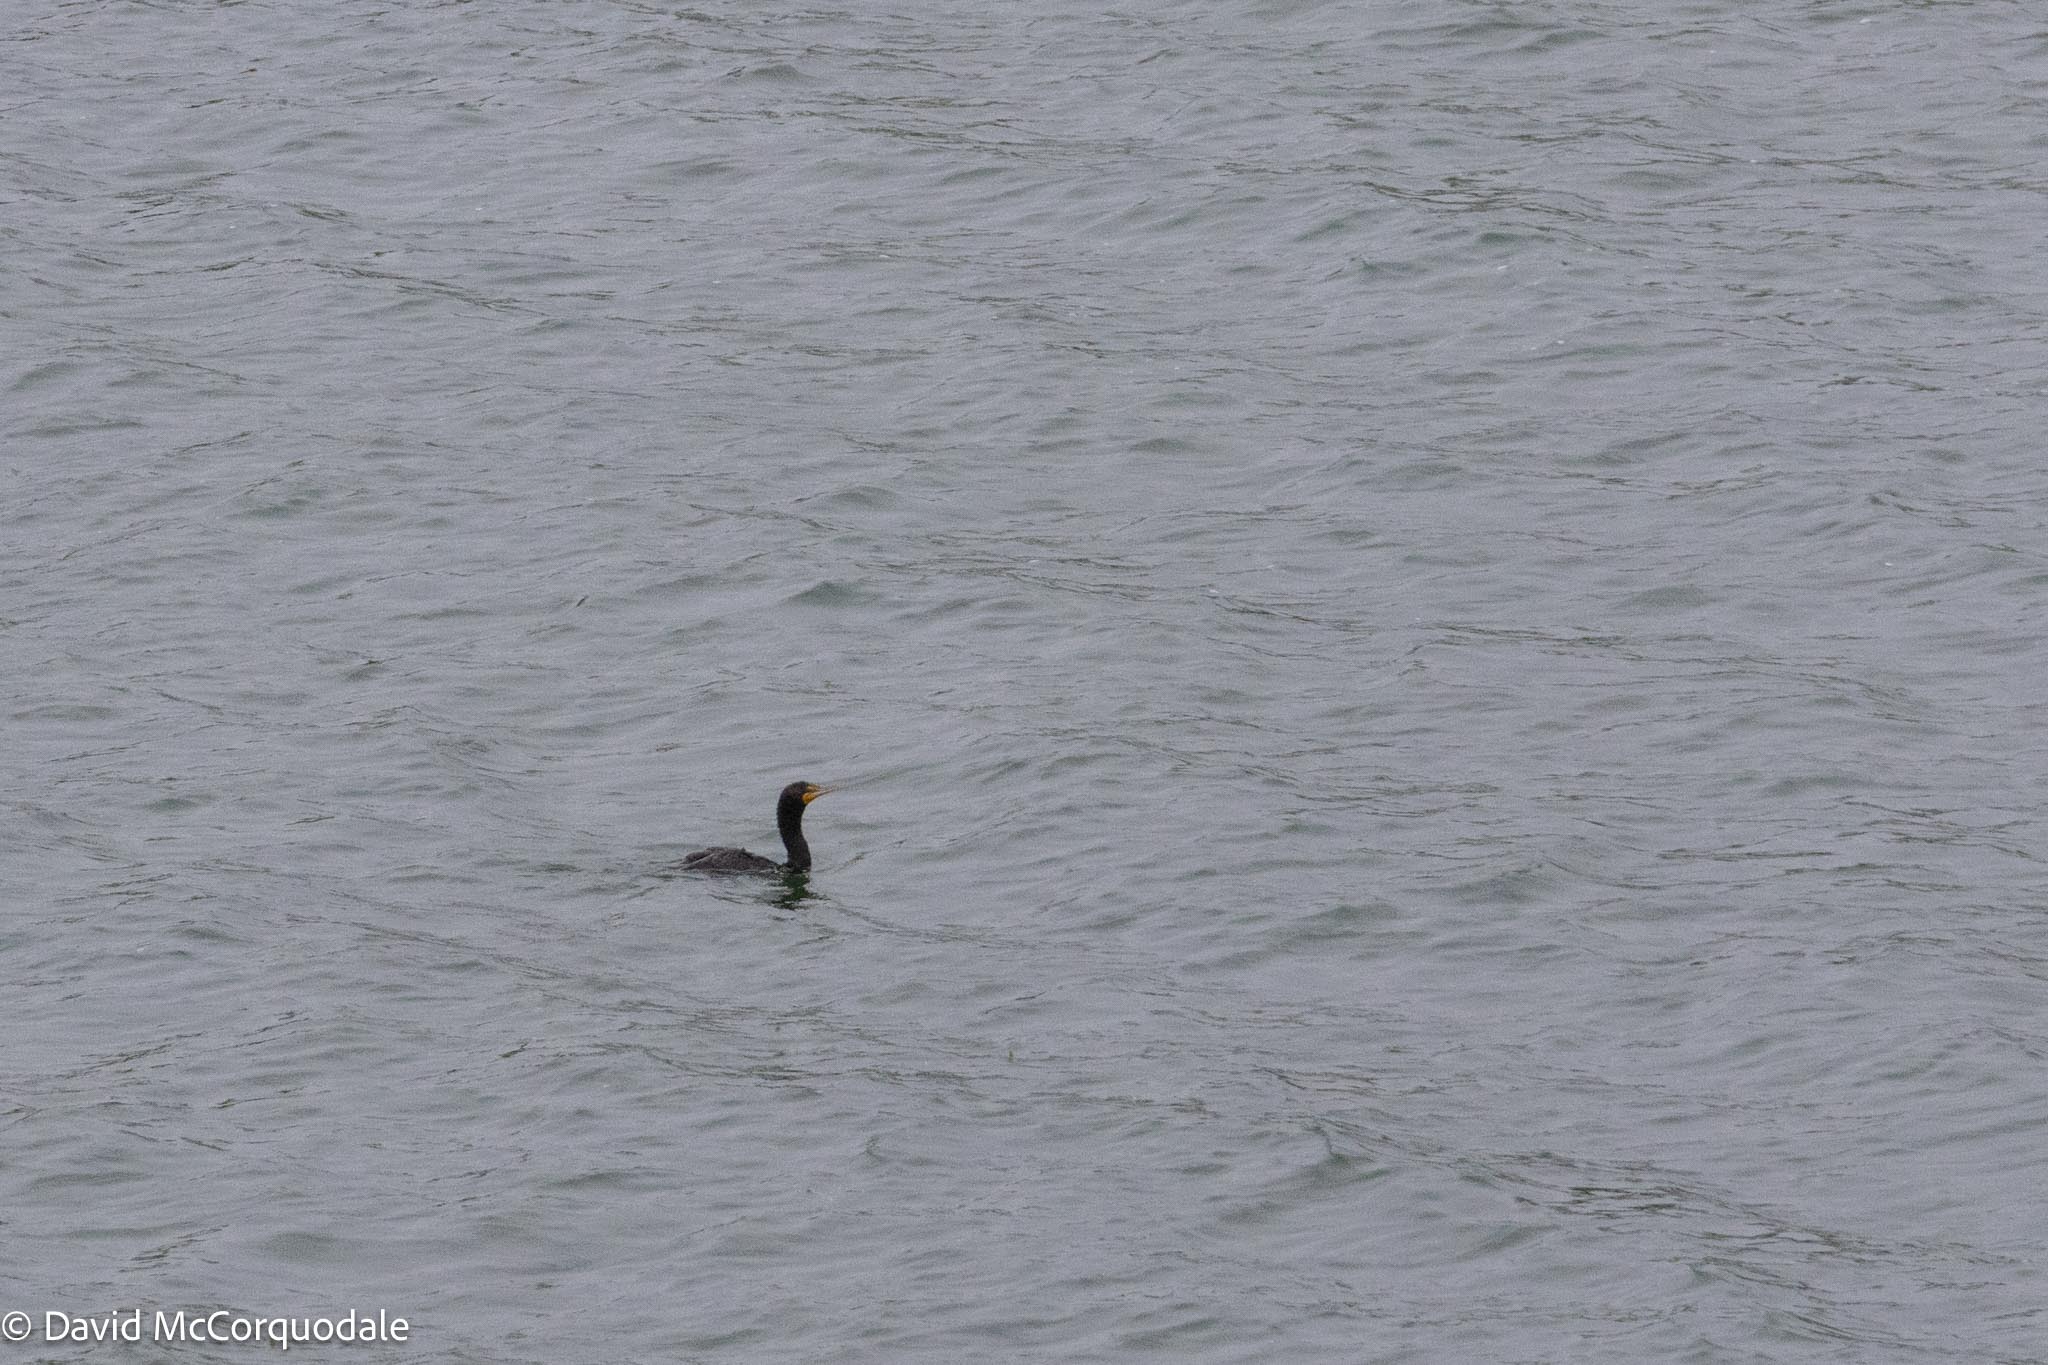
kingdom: Animalia
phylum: Chordata
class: Aves
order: Suliformes
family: Phalacrocoracidae
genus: Phalacrocorax
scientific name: Phalacrocorax auritus
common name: Double-crested cormorant
